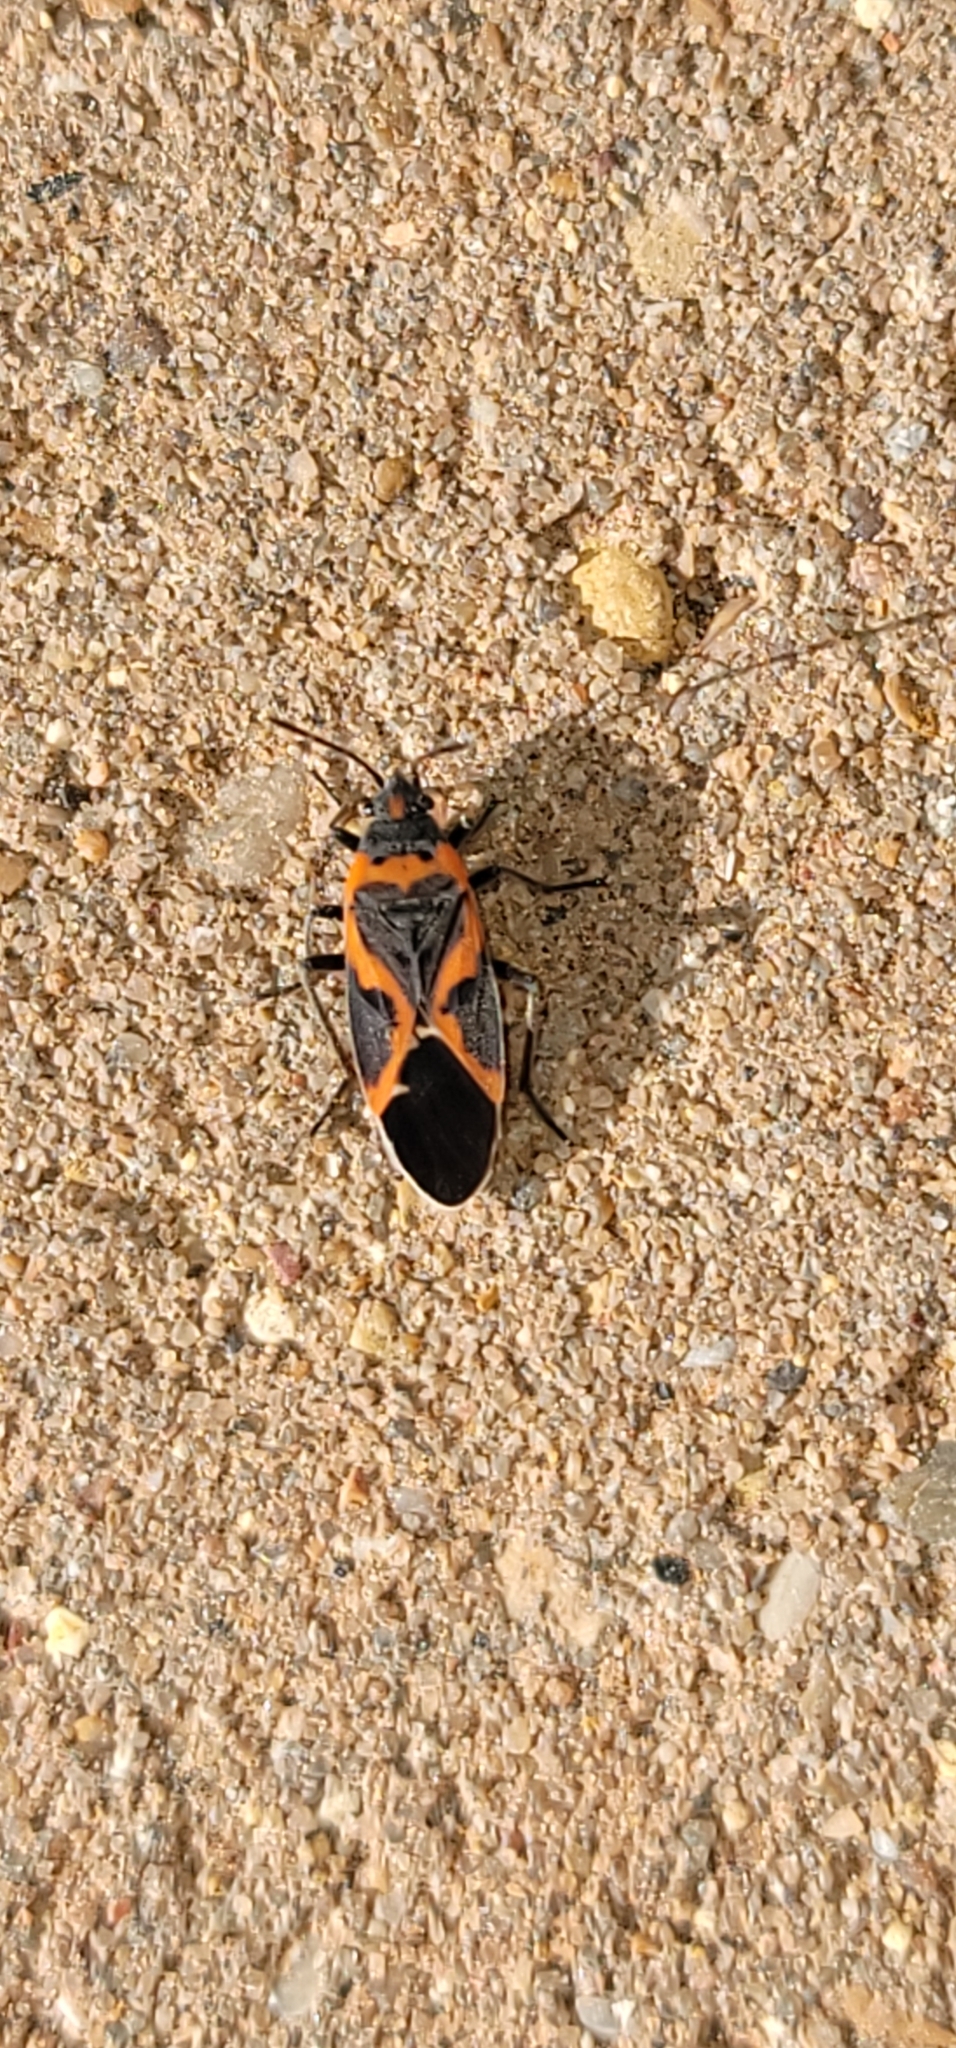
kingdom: Animalia
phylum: Arthropoda
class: Insecta
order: Hemiptera
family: Lygaeidae
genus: Lygaeus
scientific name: Lygaeus kalmii
